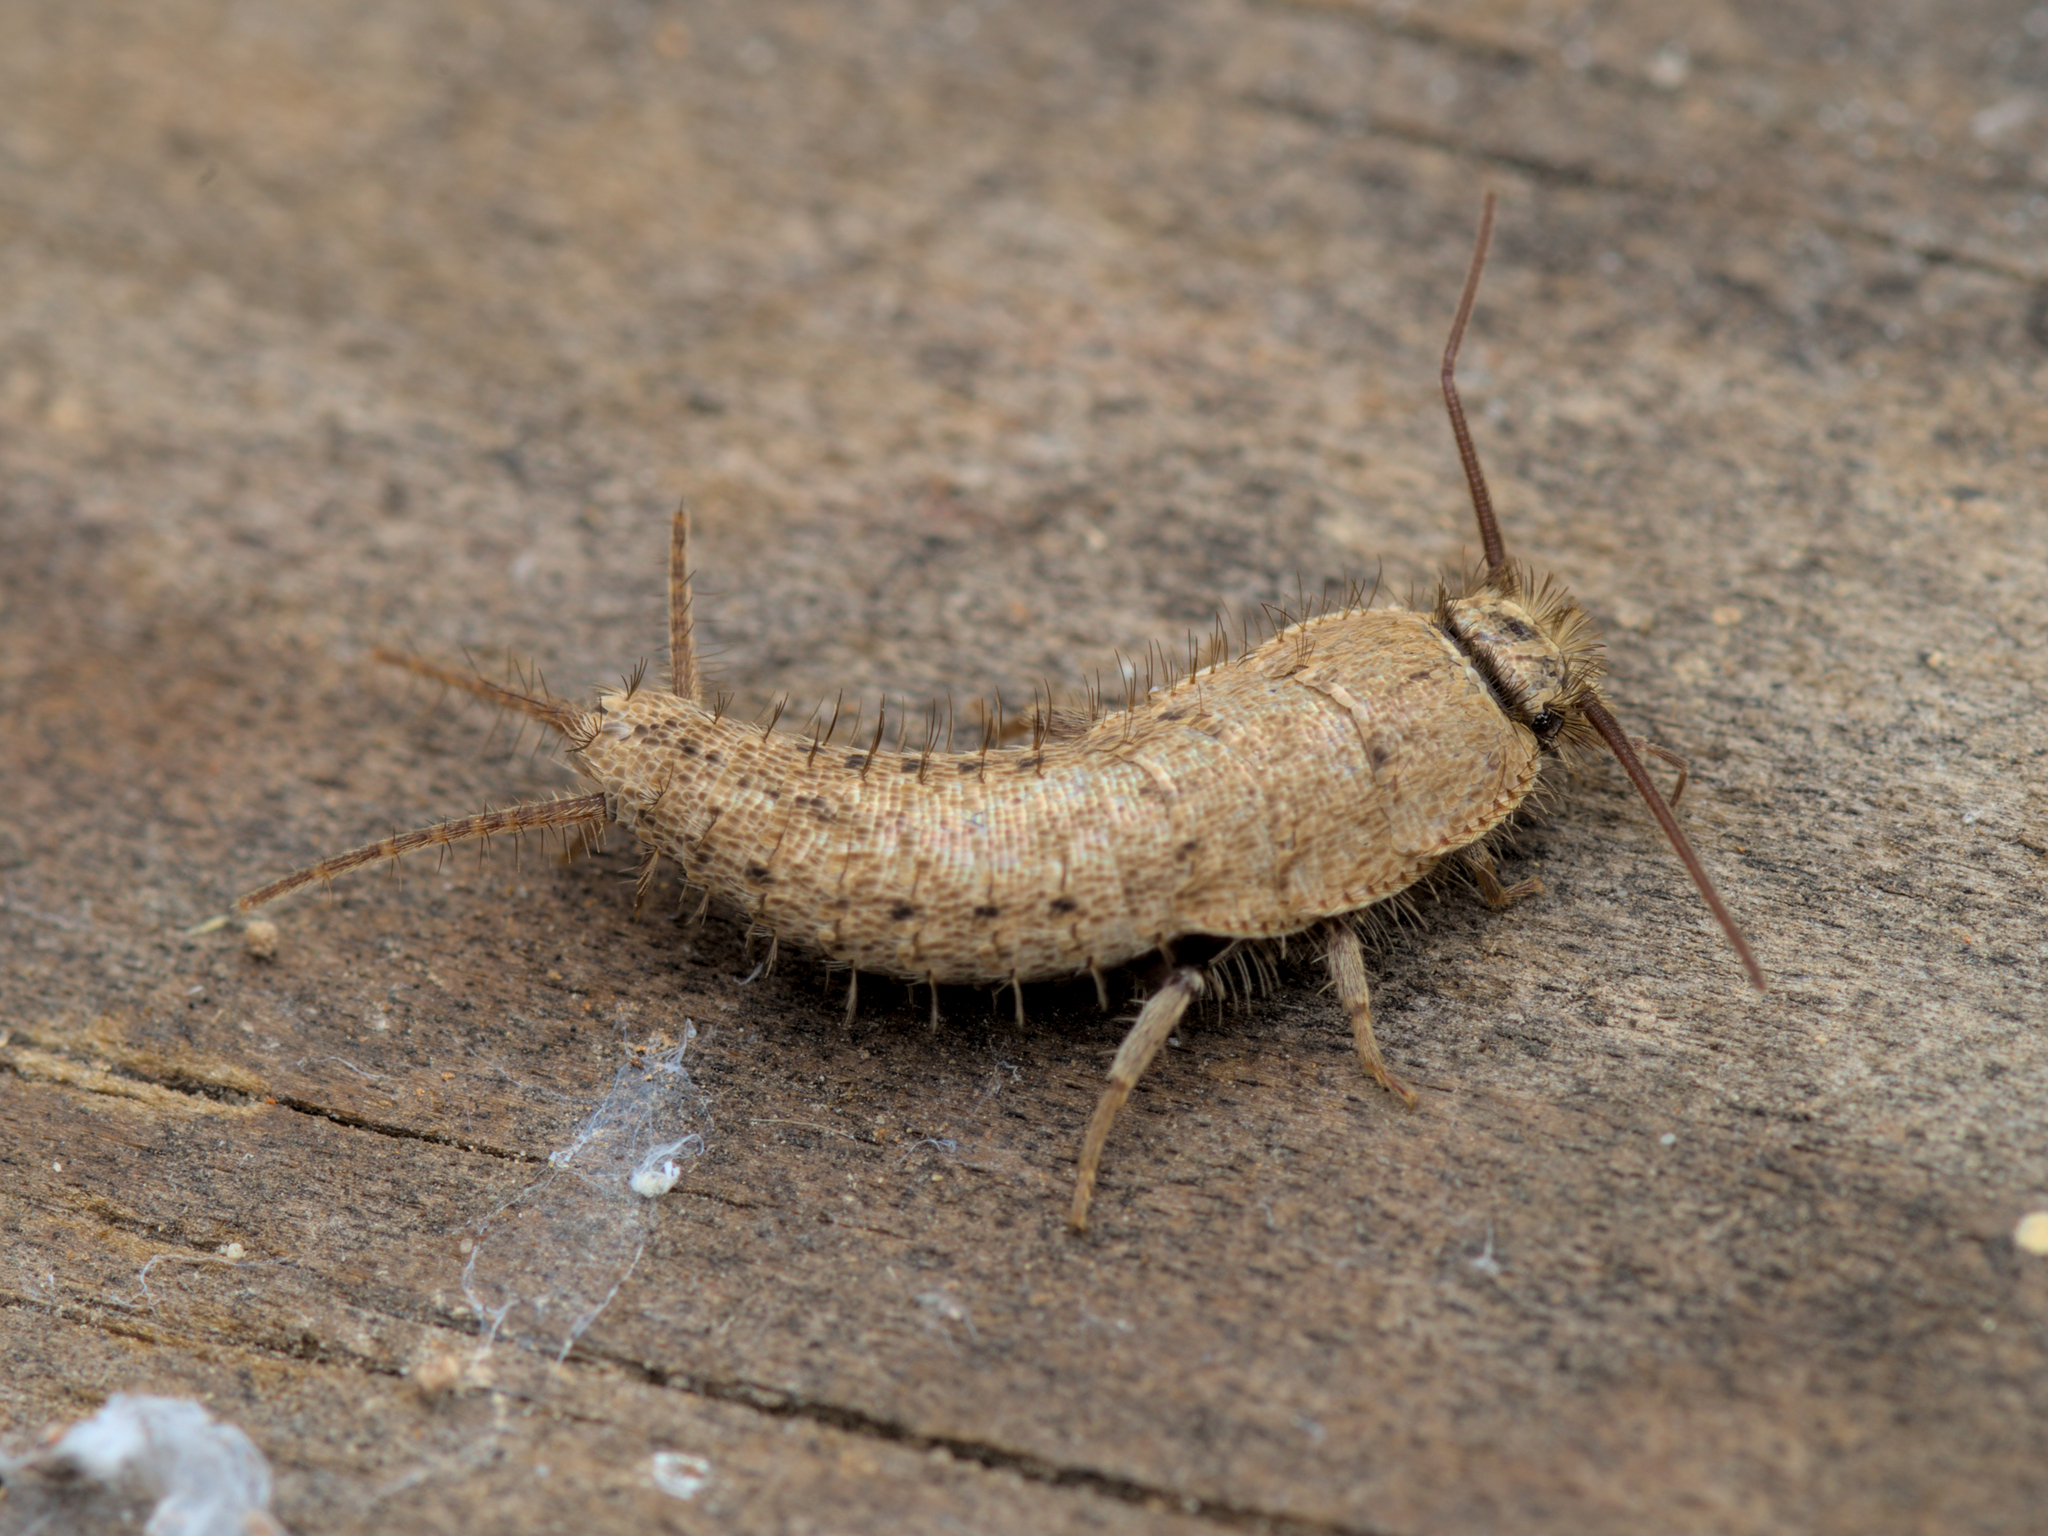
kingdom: Animalia
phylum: Arthropoda
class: Insecta
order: Zygentoma
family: Lepismatidae
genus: Ctenolepisma
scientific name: Ctenolepisma ciliata
